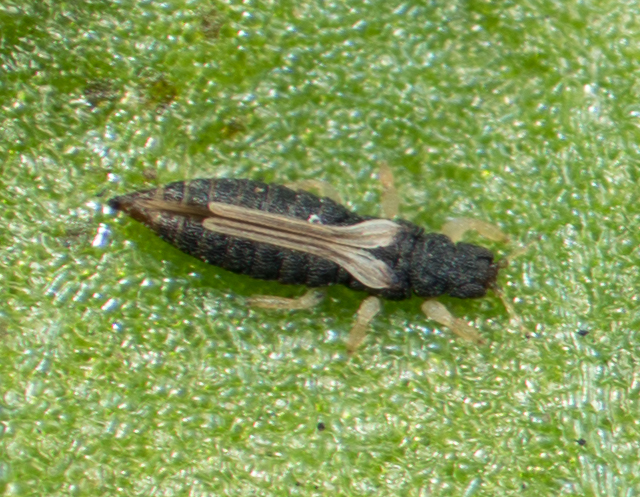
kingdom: Animalia
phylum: Arthropoda
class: Insecta
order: Thysanoptera
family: Thripidae
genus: Heliothrips
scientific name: Heliothrips haemorrhoidalis
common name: Thrips
